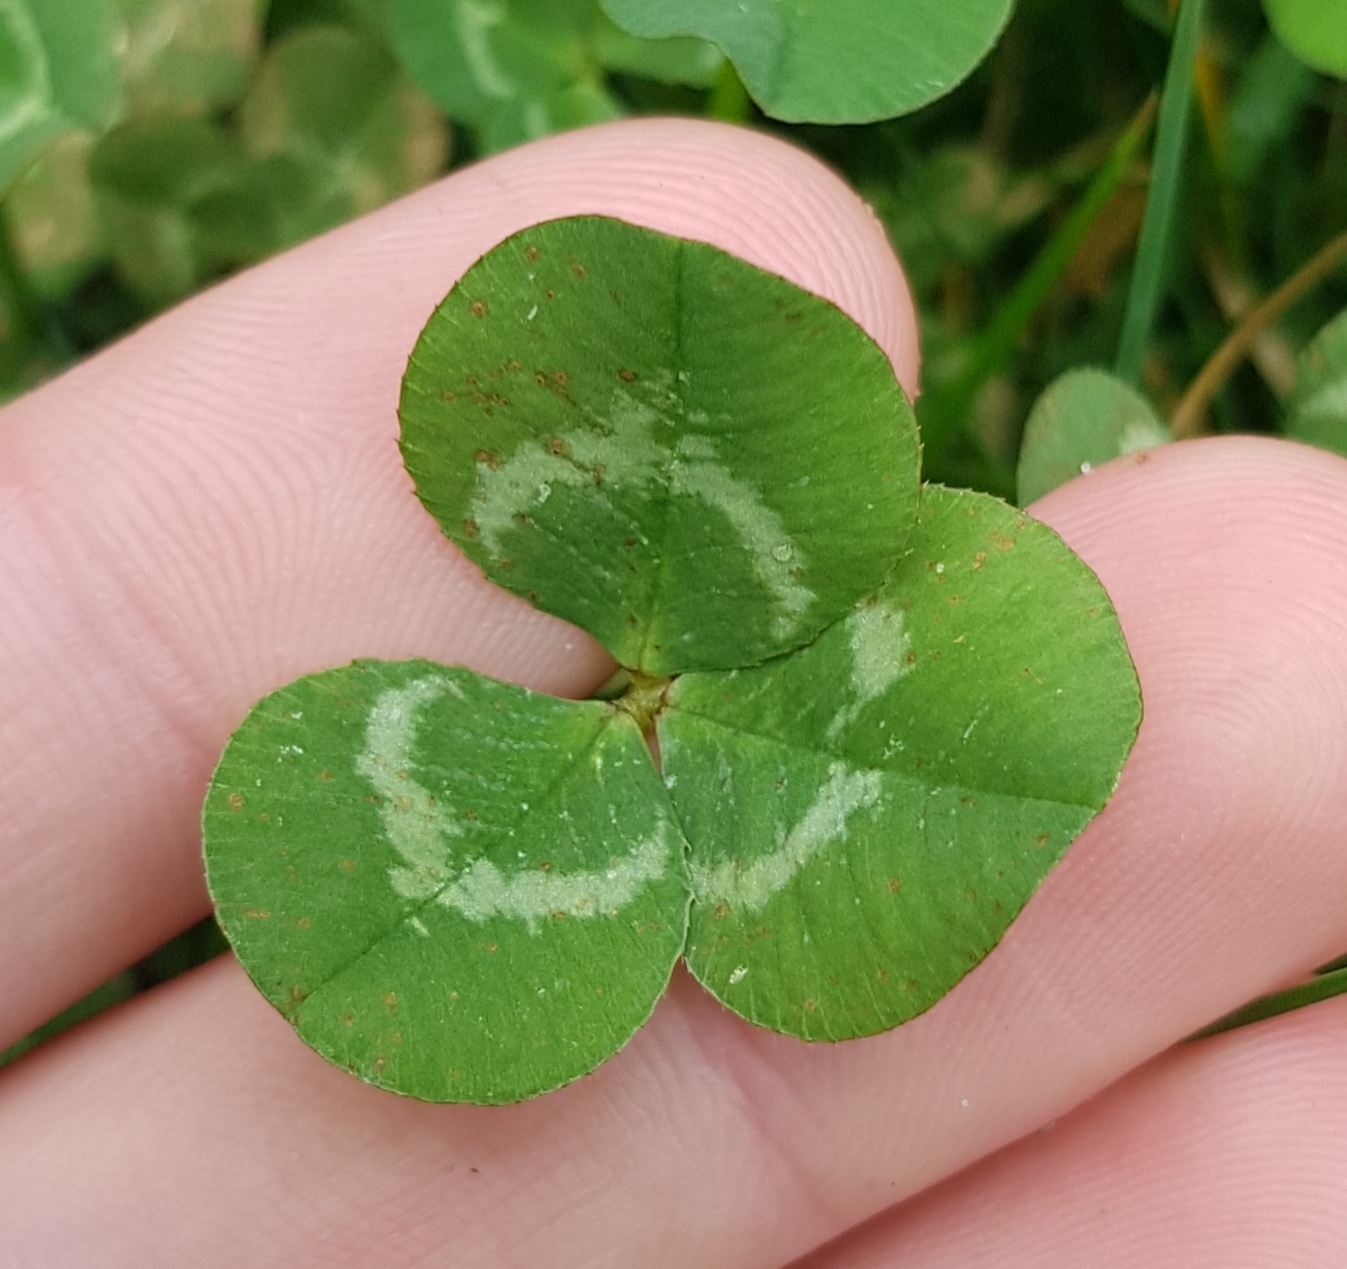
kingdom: Plantae
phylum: Tracheophyta
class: Magnoliopsida
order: Fabales
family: Fabaceae
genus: Trifolium
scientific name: Trifolium repens
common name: White clover
